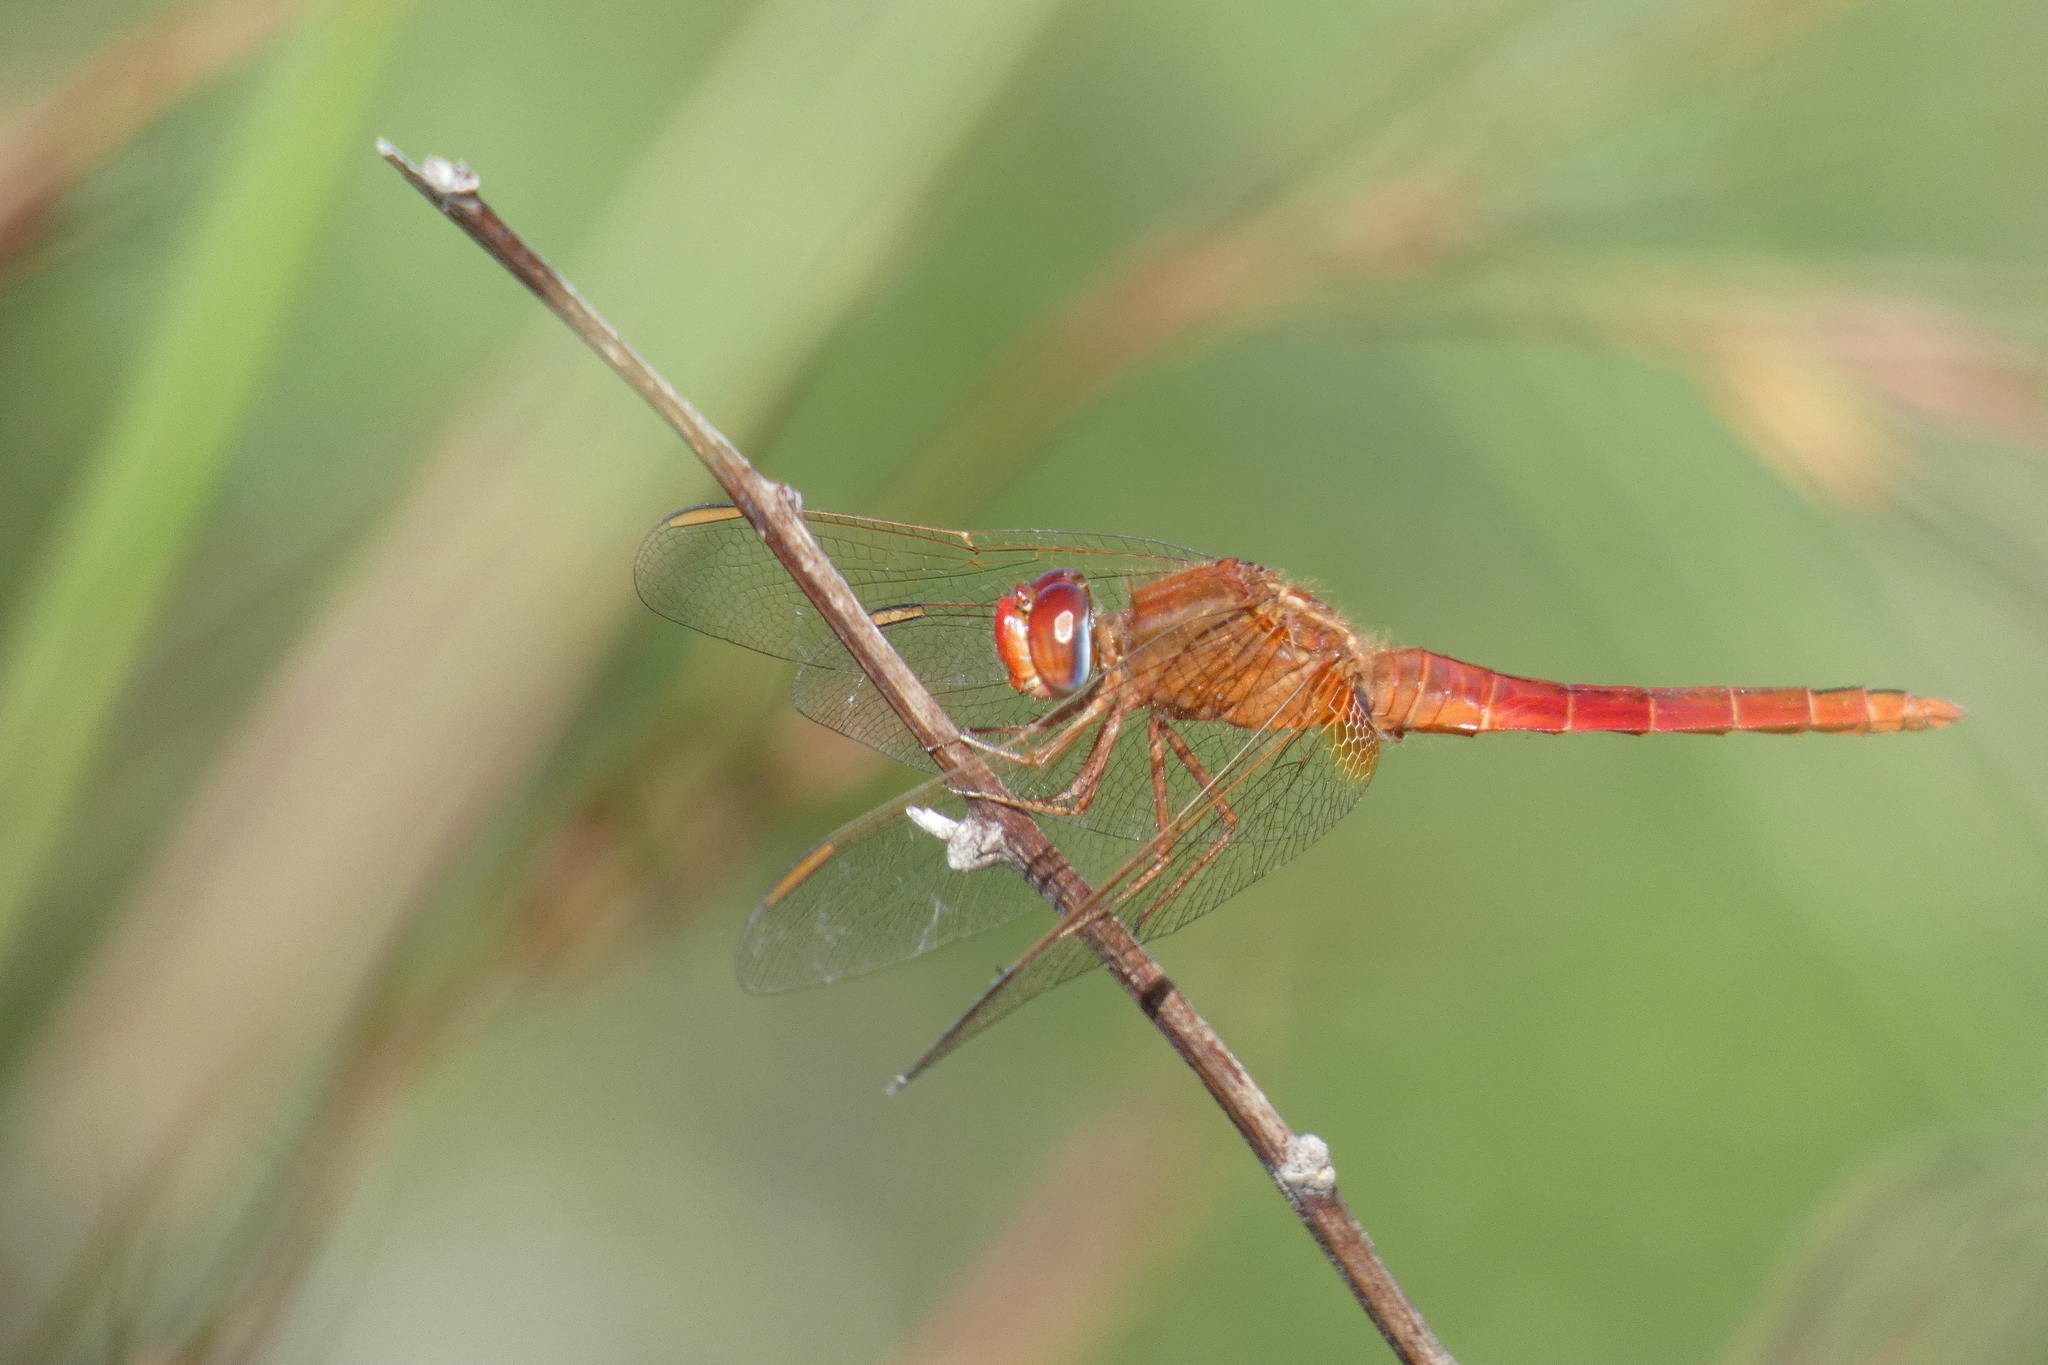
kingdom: Animalia
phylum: Arthropoda
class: Insecta
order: Odonata
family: Libellulidae
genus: Crocothemis
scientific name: Crocothemis servilia
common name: Scarlet skimmer
